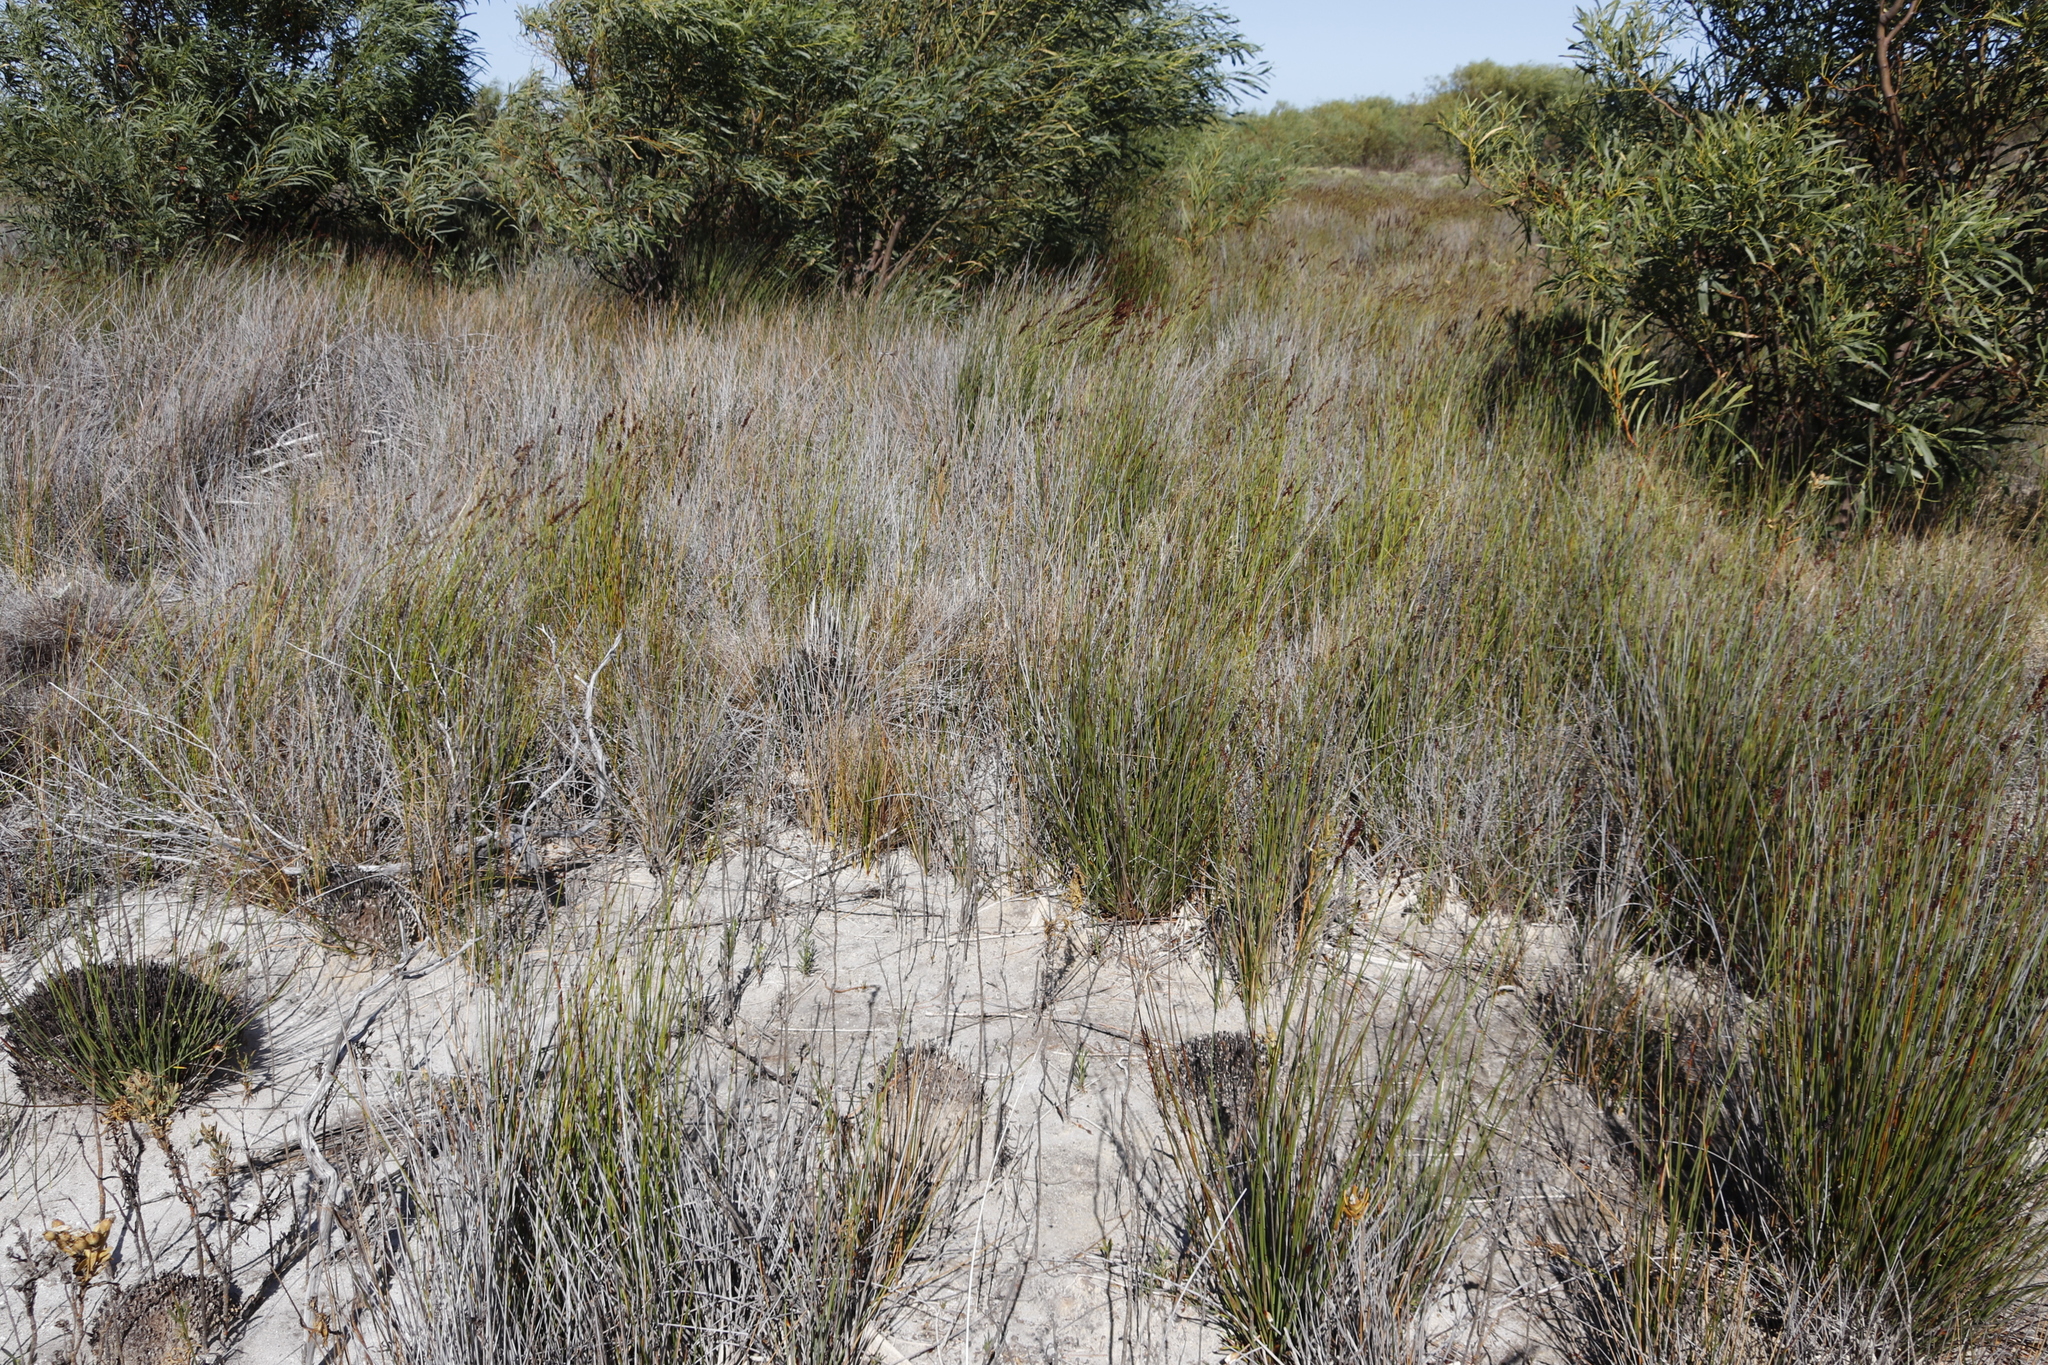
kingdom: Plantae
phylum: Tracheophyta
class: Liliopsida
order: Poales
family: Restionaceae
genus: Elegia
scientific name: Elegia tectorum
